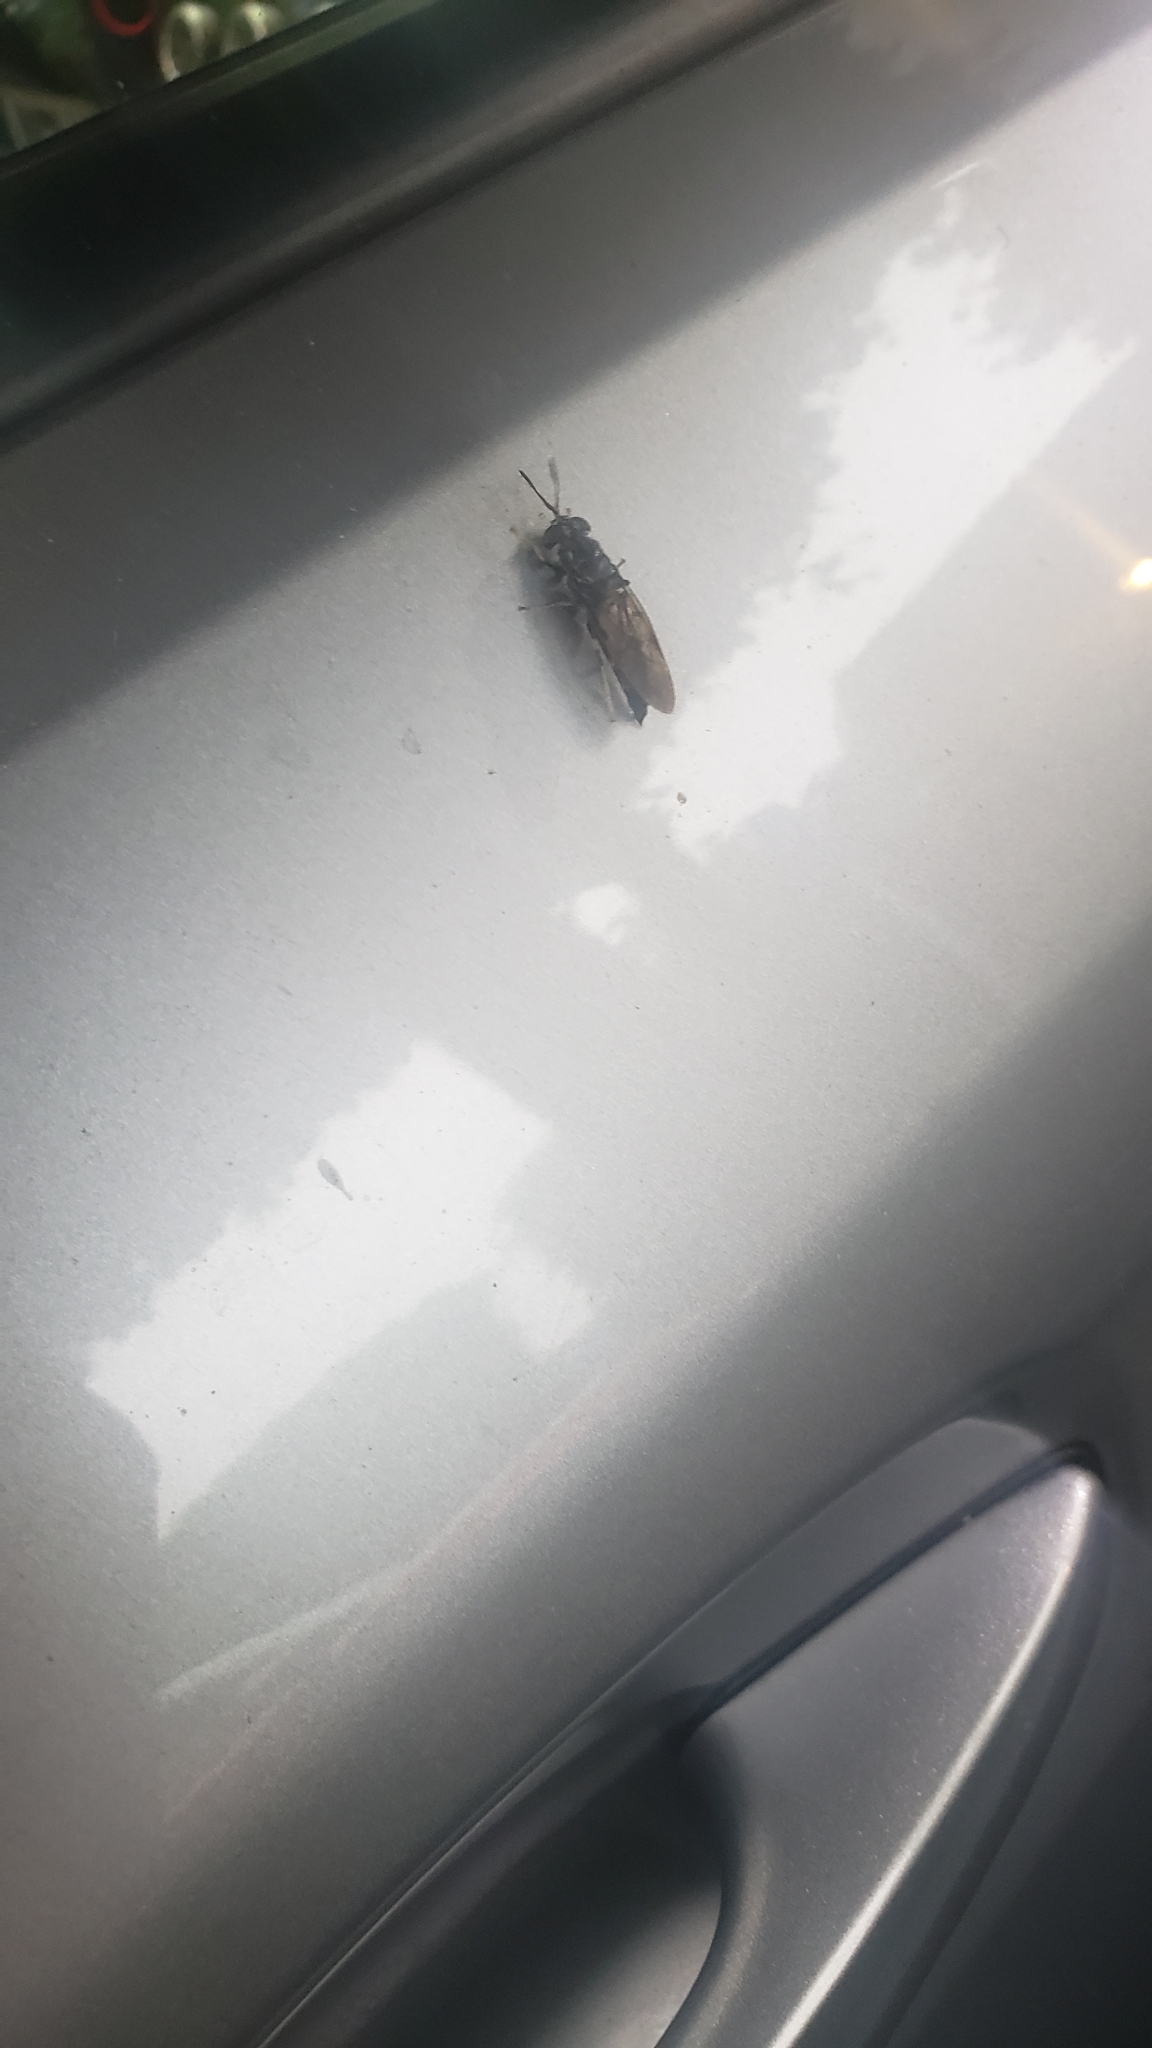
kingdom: Animalia
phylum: Arthropoda
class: Insecta
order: Diptera
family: Stratiomyidae
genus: Hermetia
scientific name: Hermetia illucens
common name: Black soldier fly
